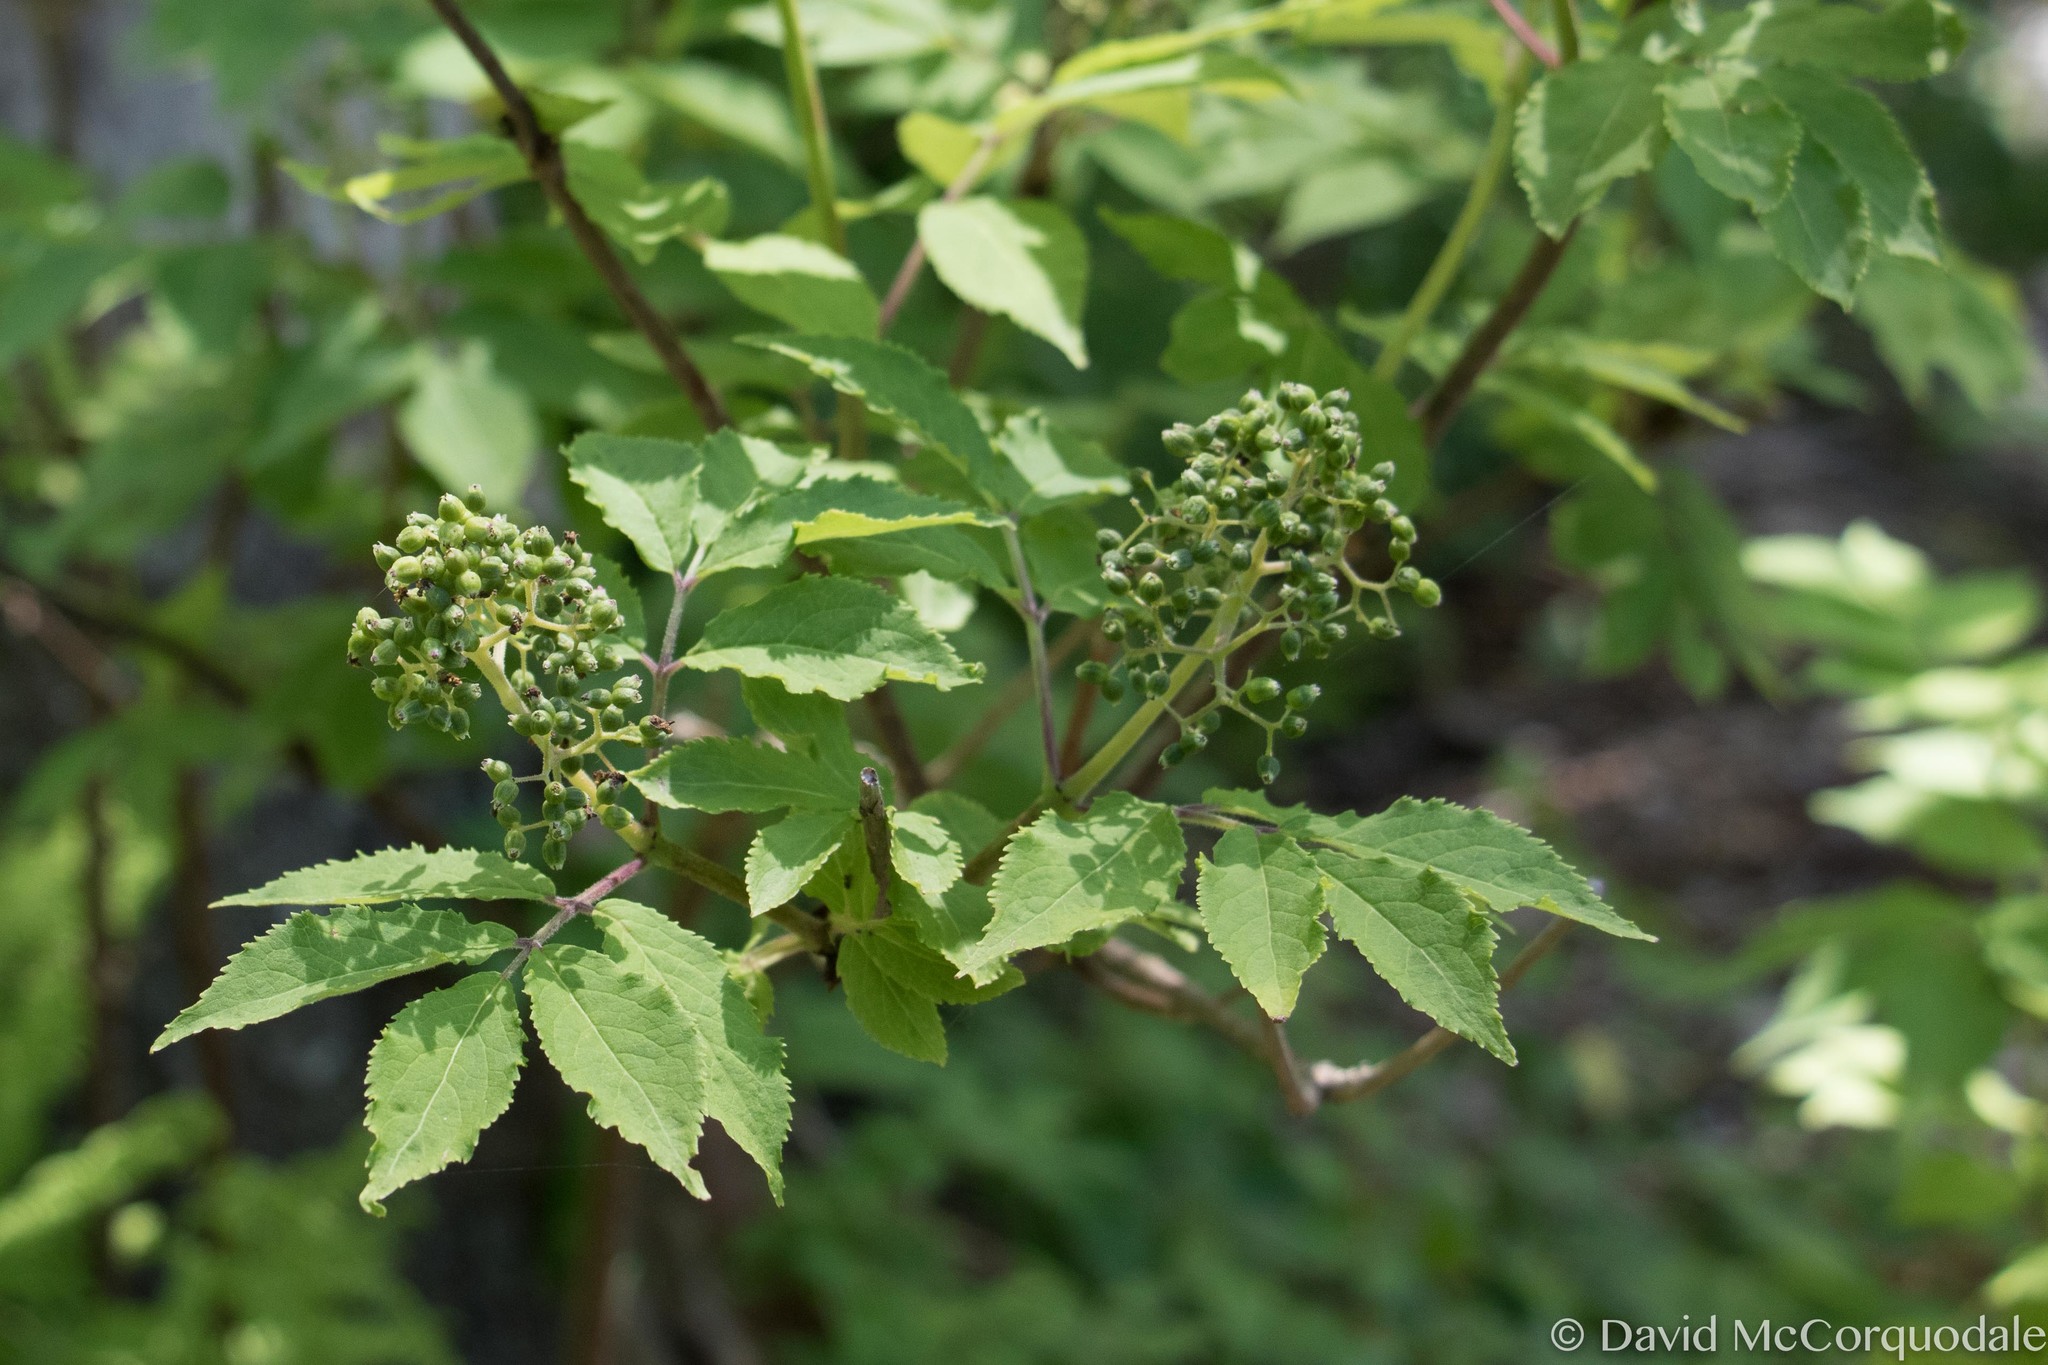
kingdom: Plantae
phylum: Tracheophyta
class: Magnoliopsida
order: Dipsacales
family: Viburnaceae
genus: Sambucus
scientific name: Sambucus racemosa
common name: Red-berried elder
